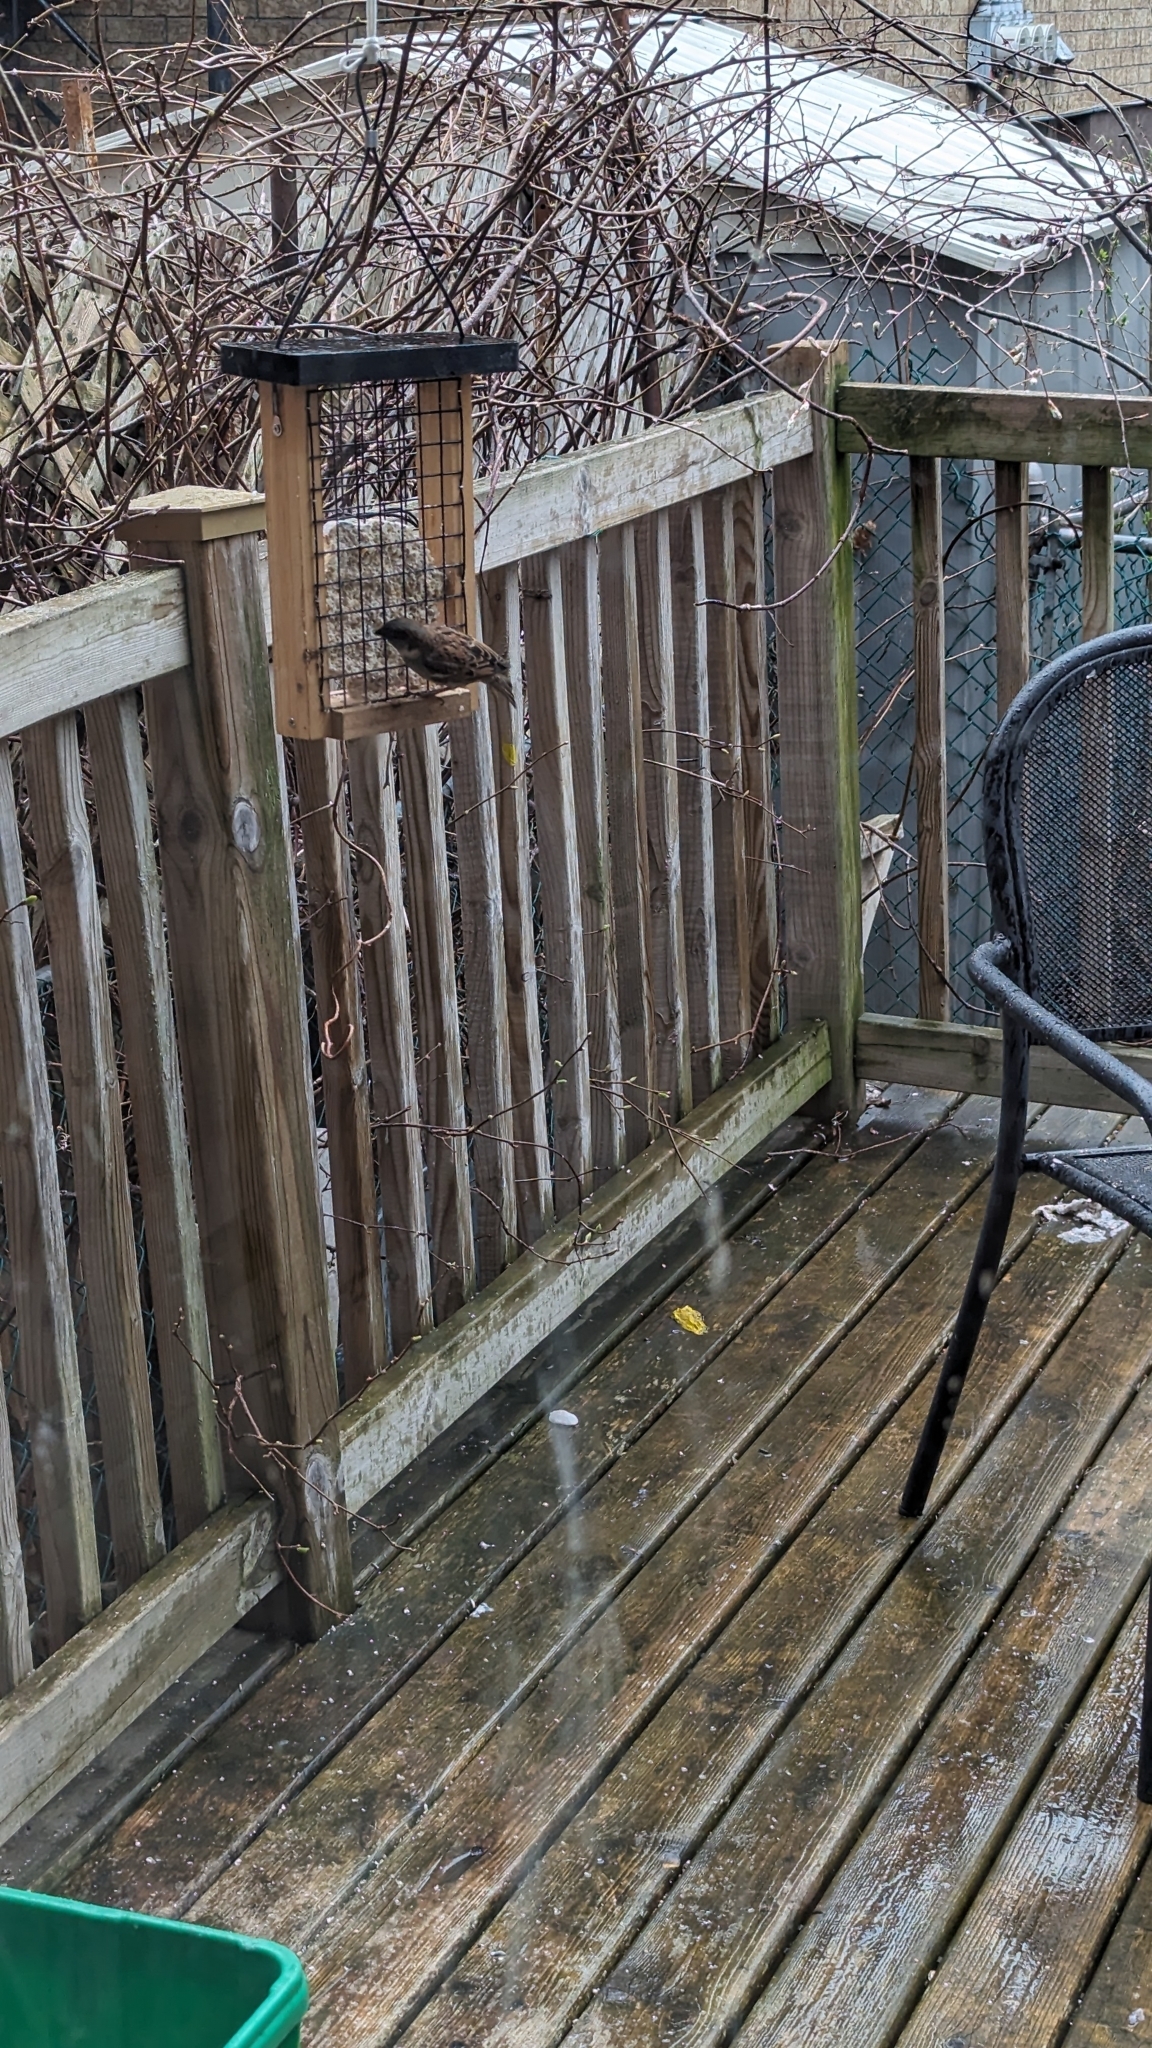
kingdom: Animalia
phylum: Chordata
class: Aves
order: Passeriformes
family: Passeridae
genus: Passer
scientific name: Passer domesticus
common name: House sparrow
